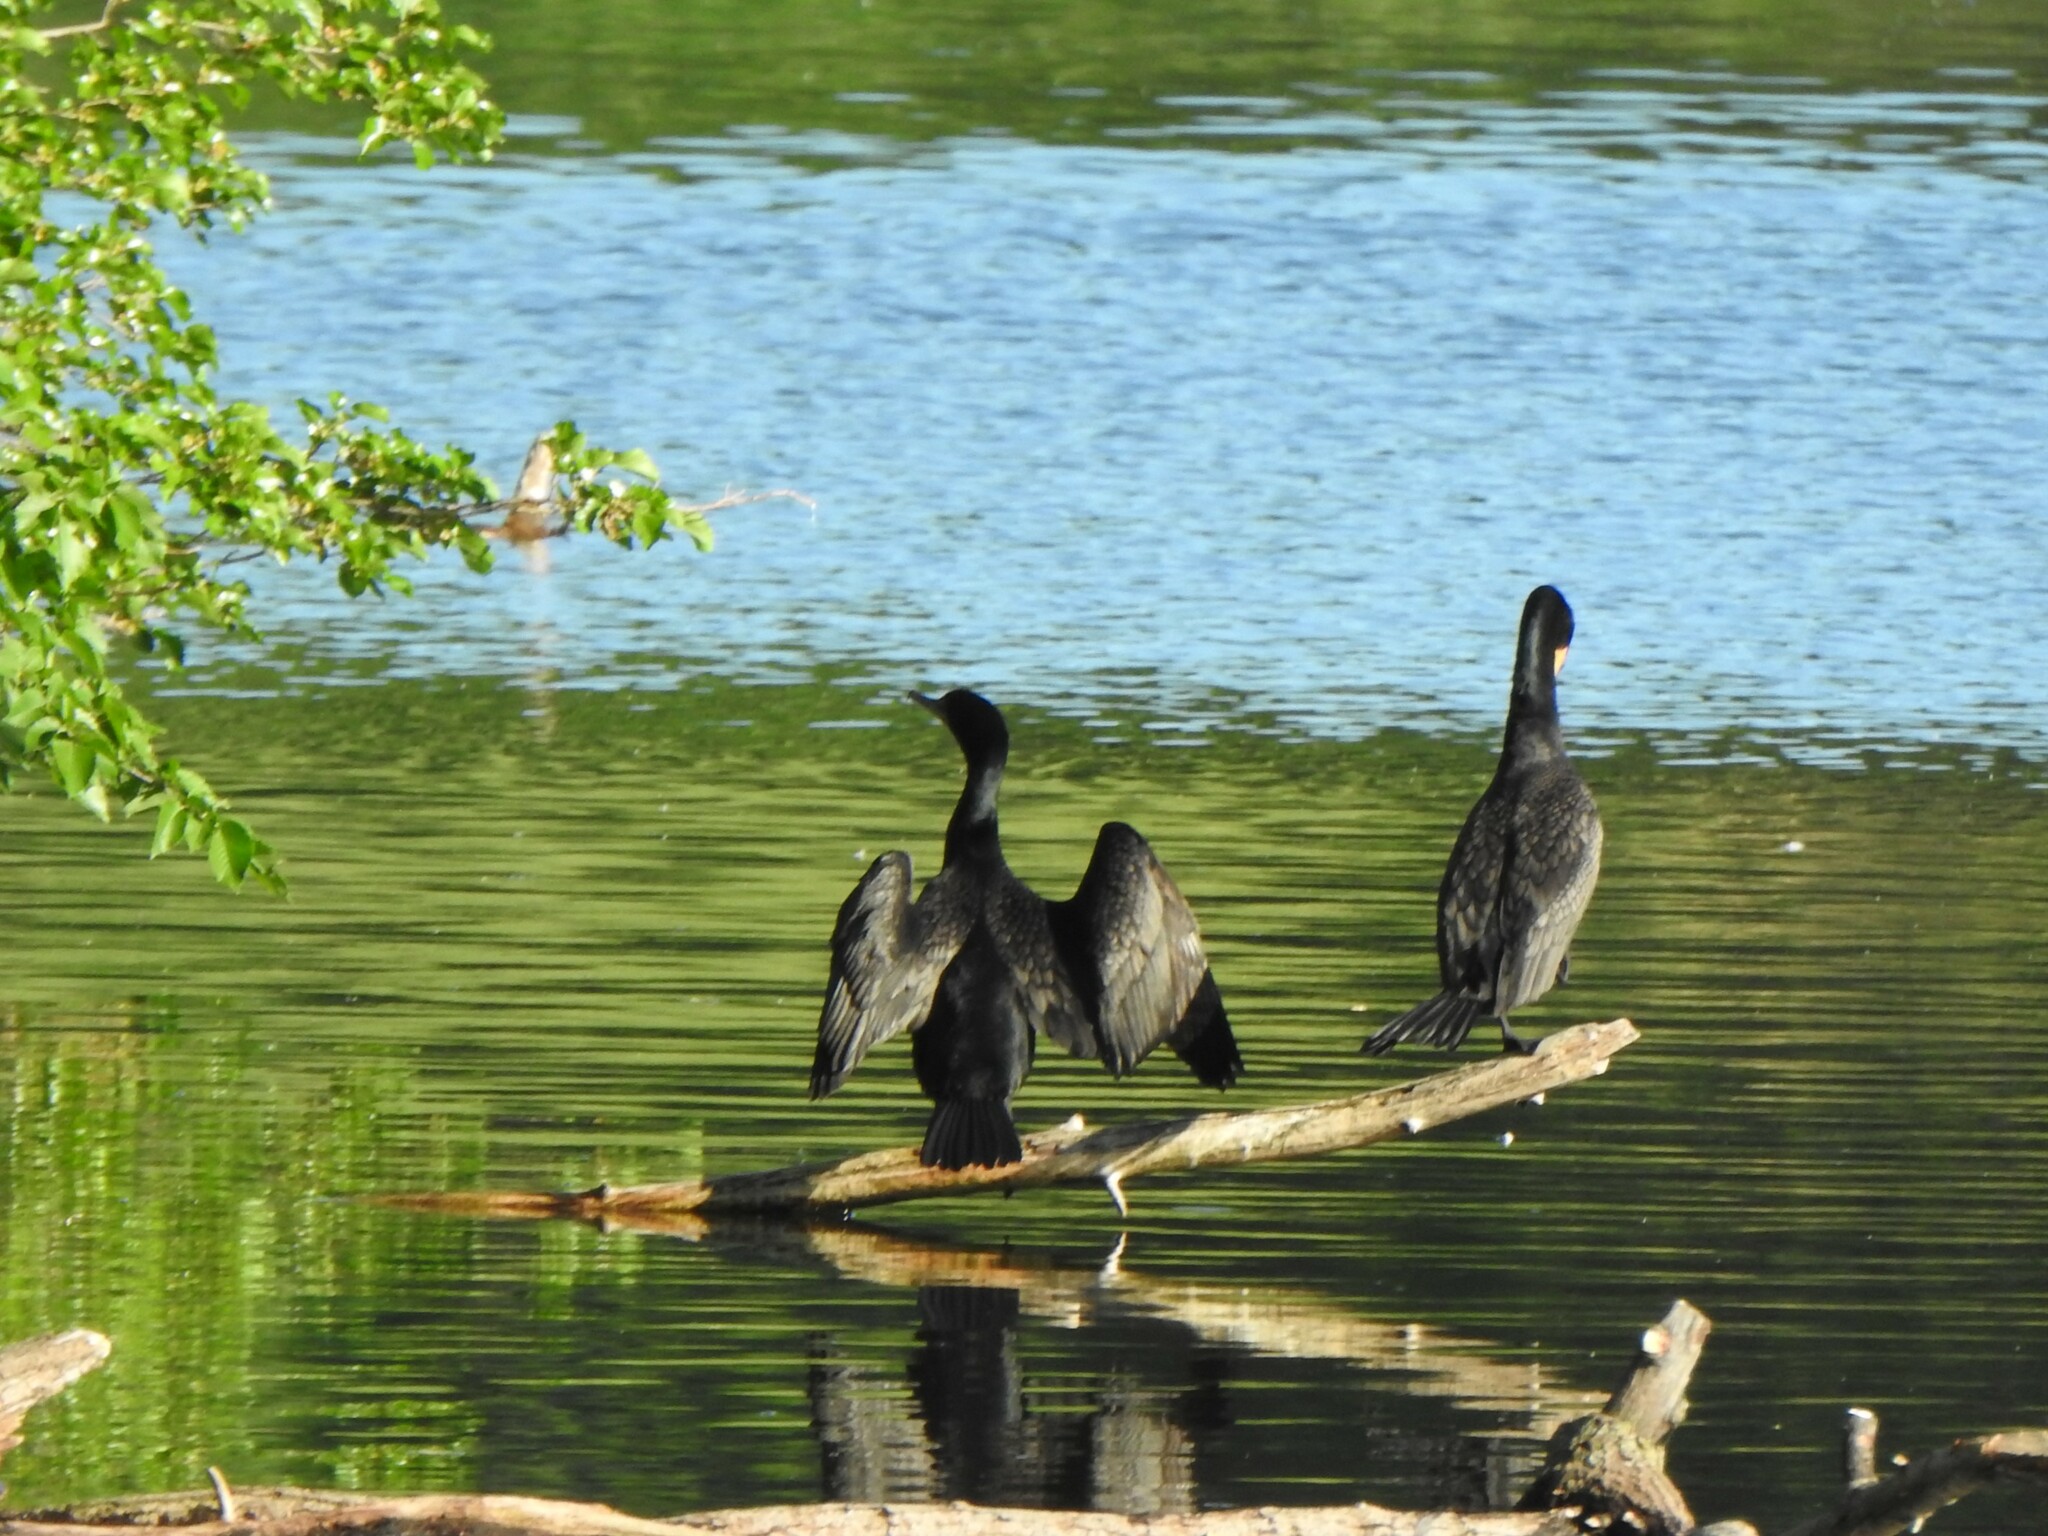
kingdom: Animalia
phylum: Chordata
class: Aves
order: Suliformes
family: Phalacrocoracidae
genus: Phalacrocorax
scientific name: Phalacrocorax auritus
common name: Double-crested cormorant
